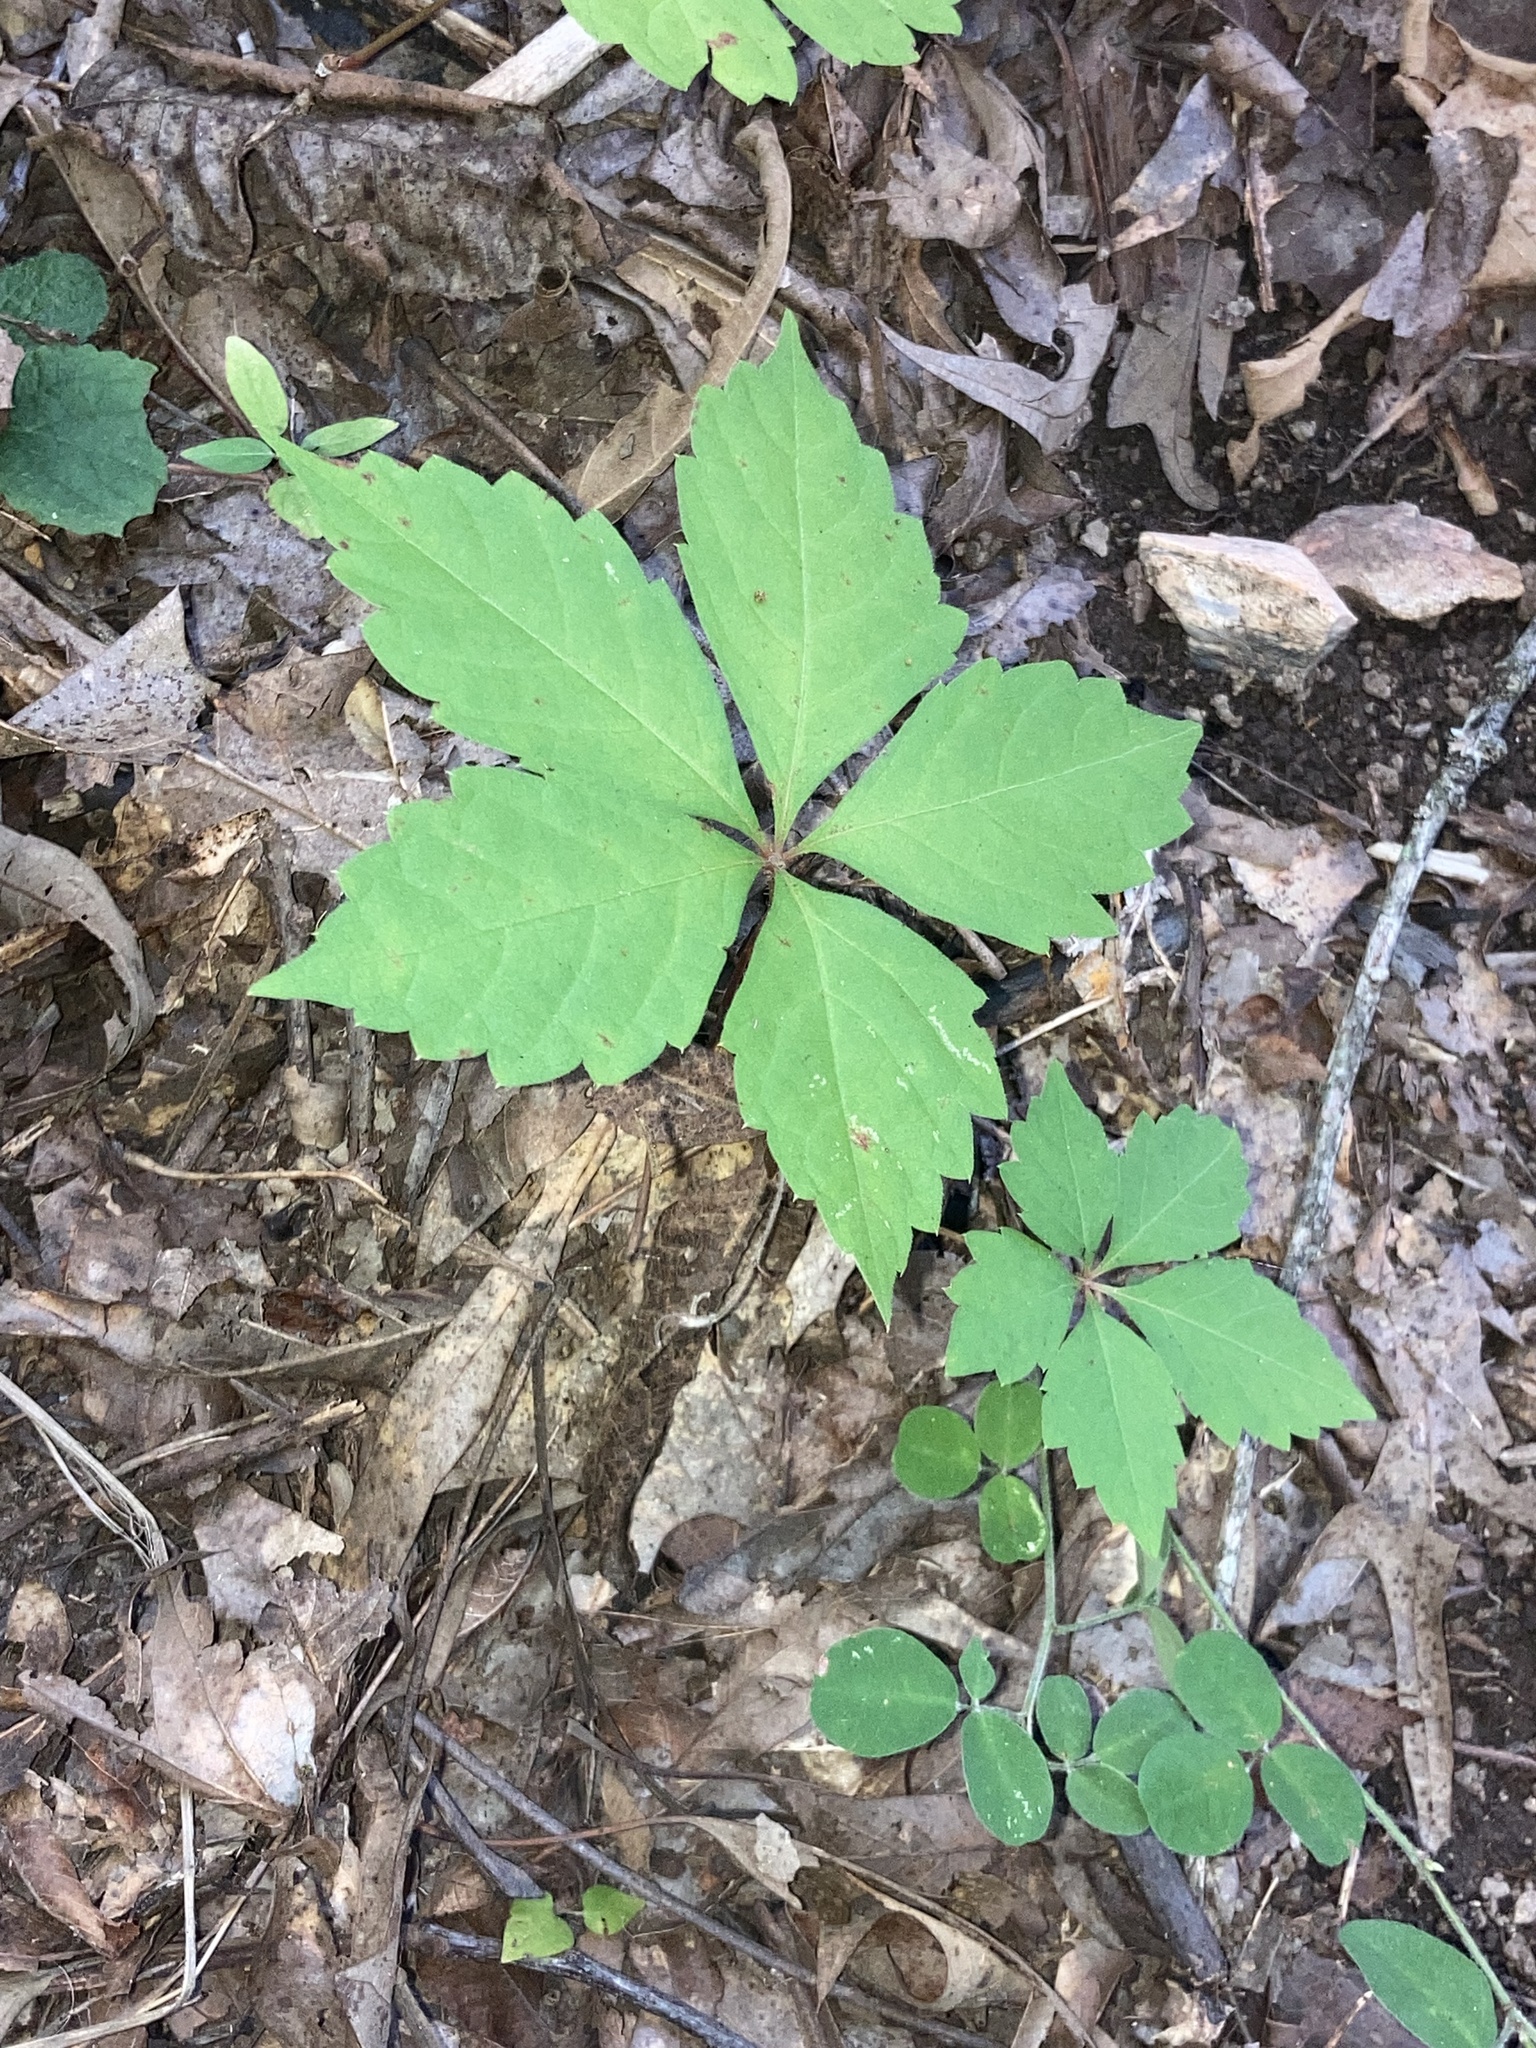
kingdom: Plantae
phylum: Tracheophyta
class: Magnoliopsida
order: Vitales
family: Vitaceae
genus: Parthenocissus
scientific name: Parthenocissus quinquefolia
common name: Virginia-creeper
